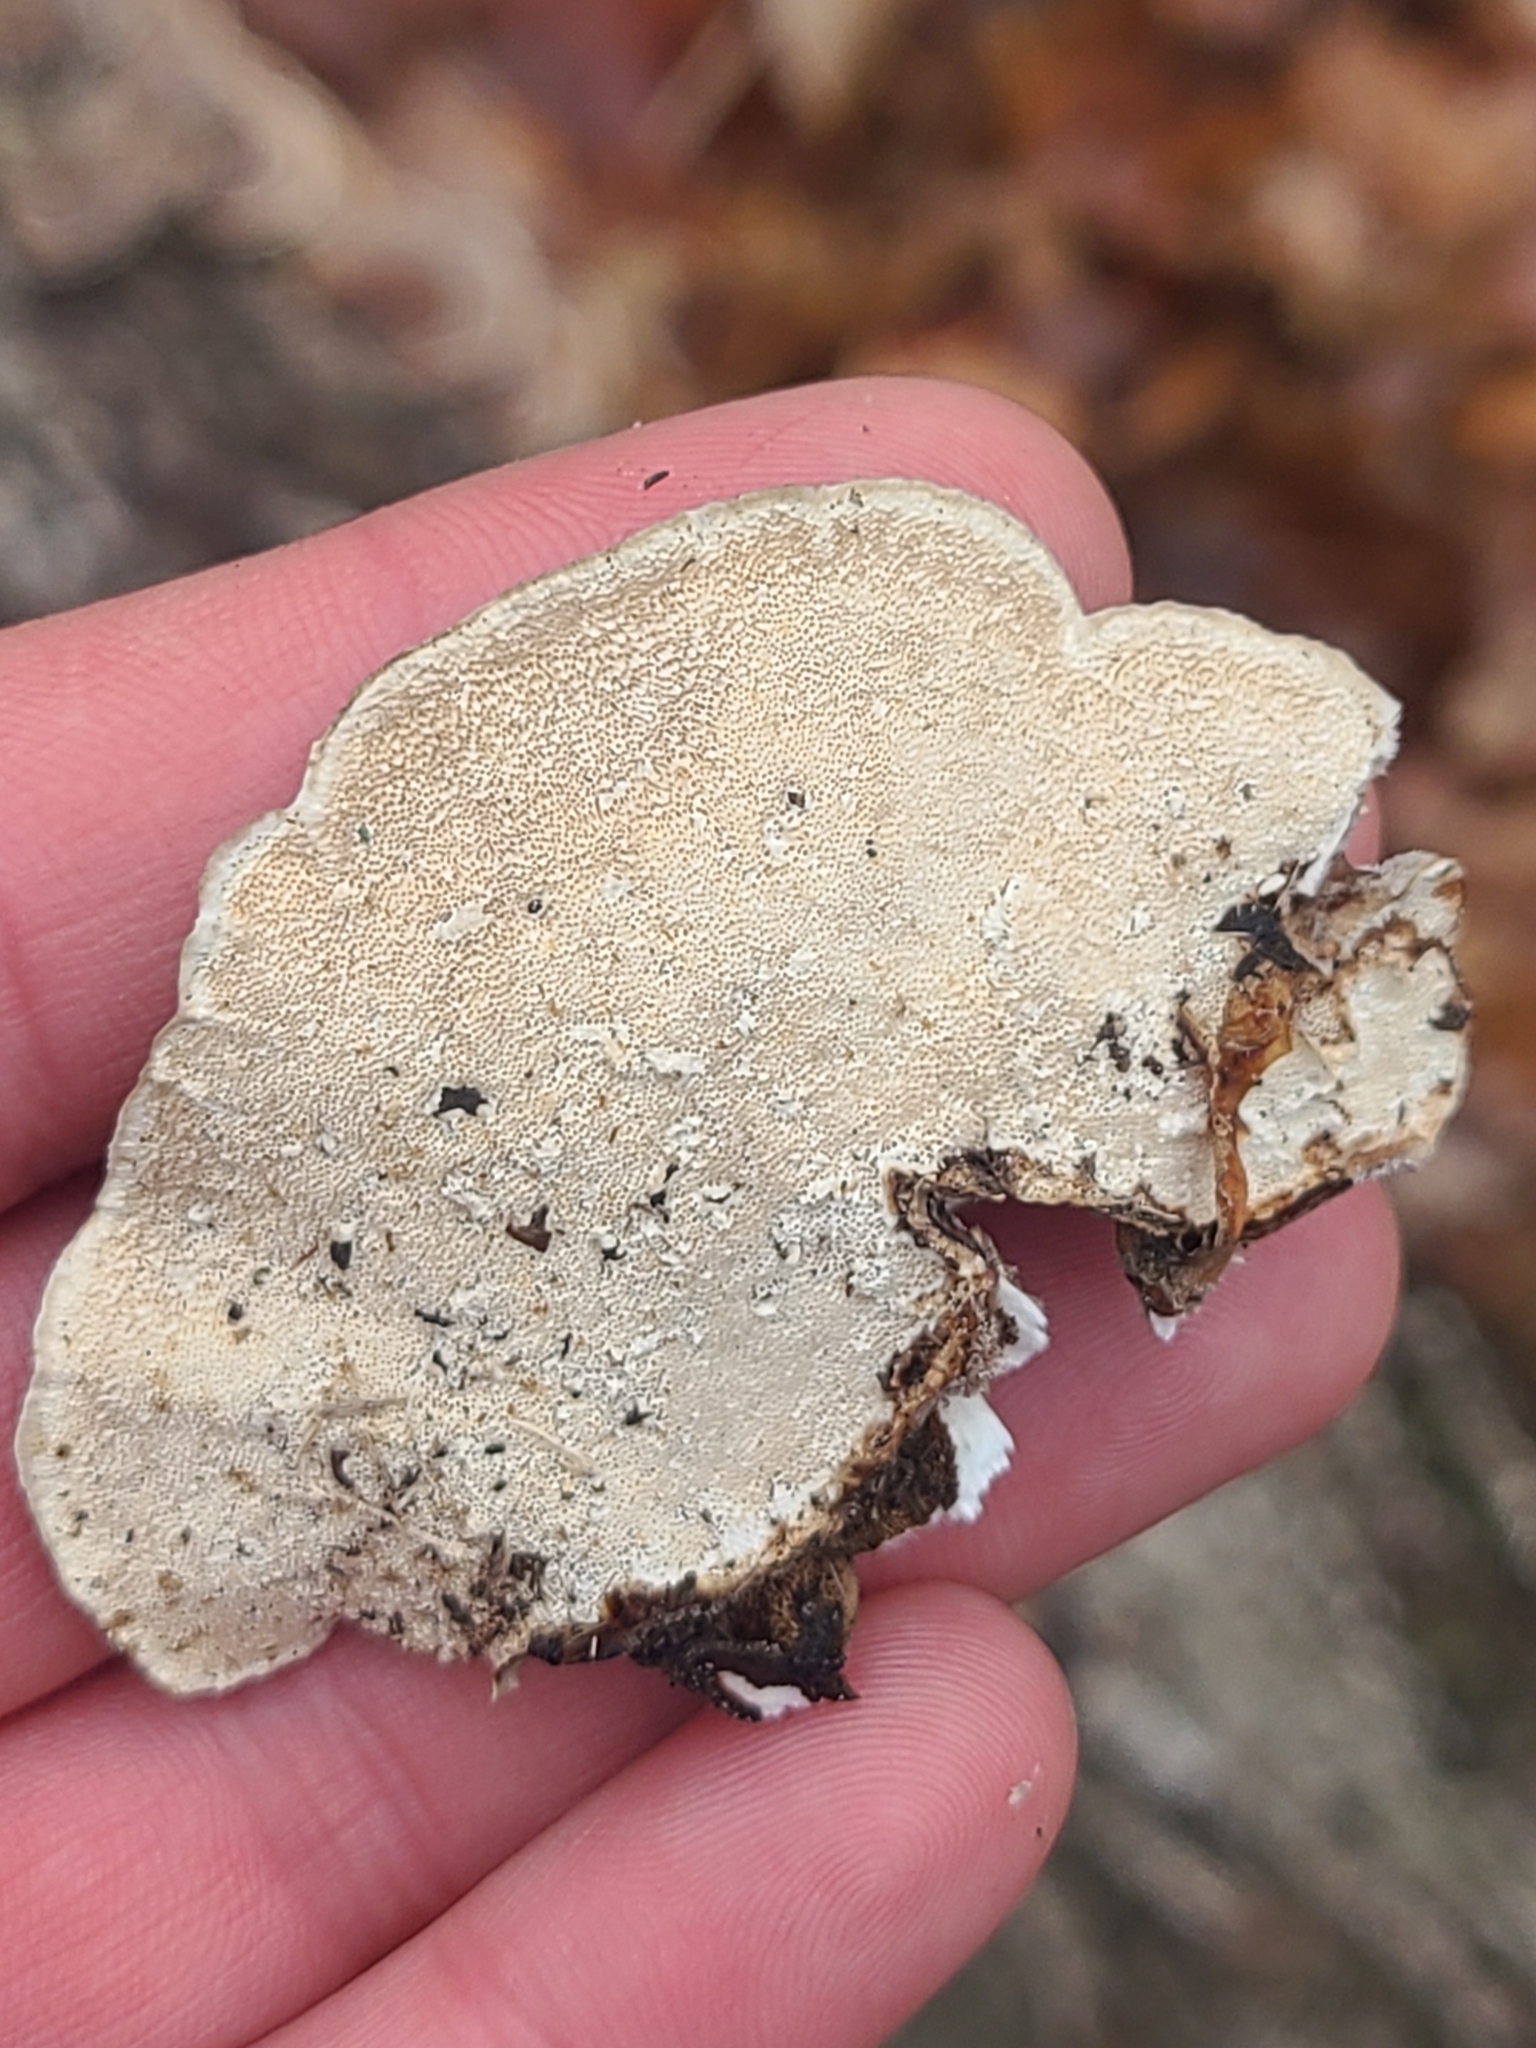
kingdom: Fungi
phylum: Basidiomycota
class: Agaricomycetes
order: Polyporales
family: Polyporaceae
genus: Trametes
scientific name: Trametes versicolor
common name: Turkeytail
